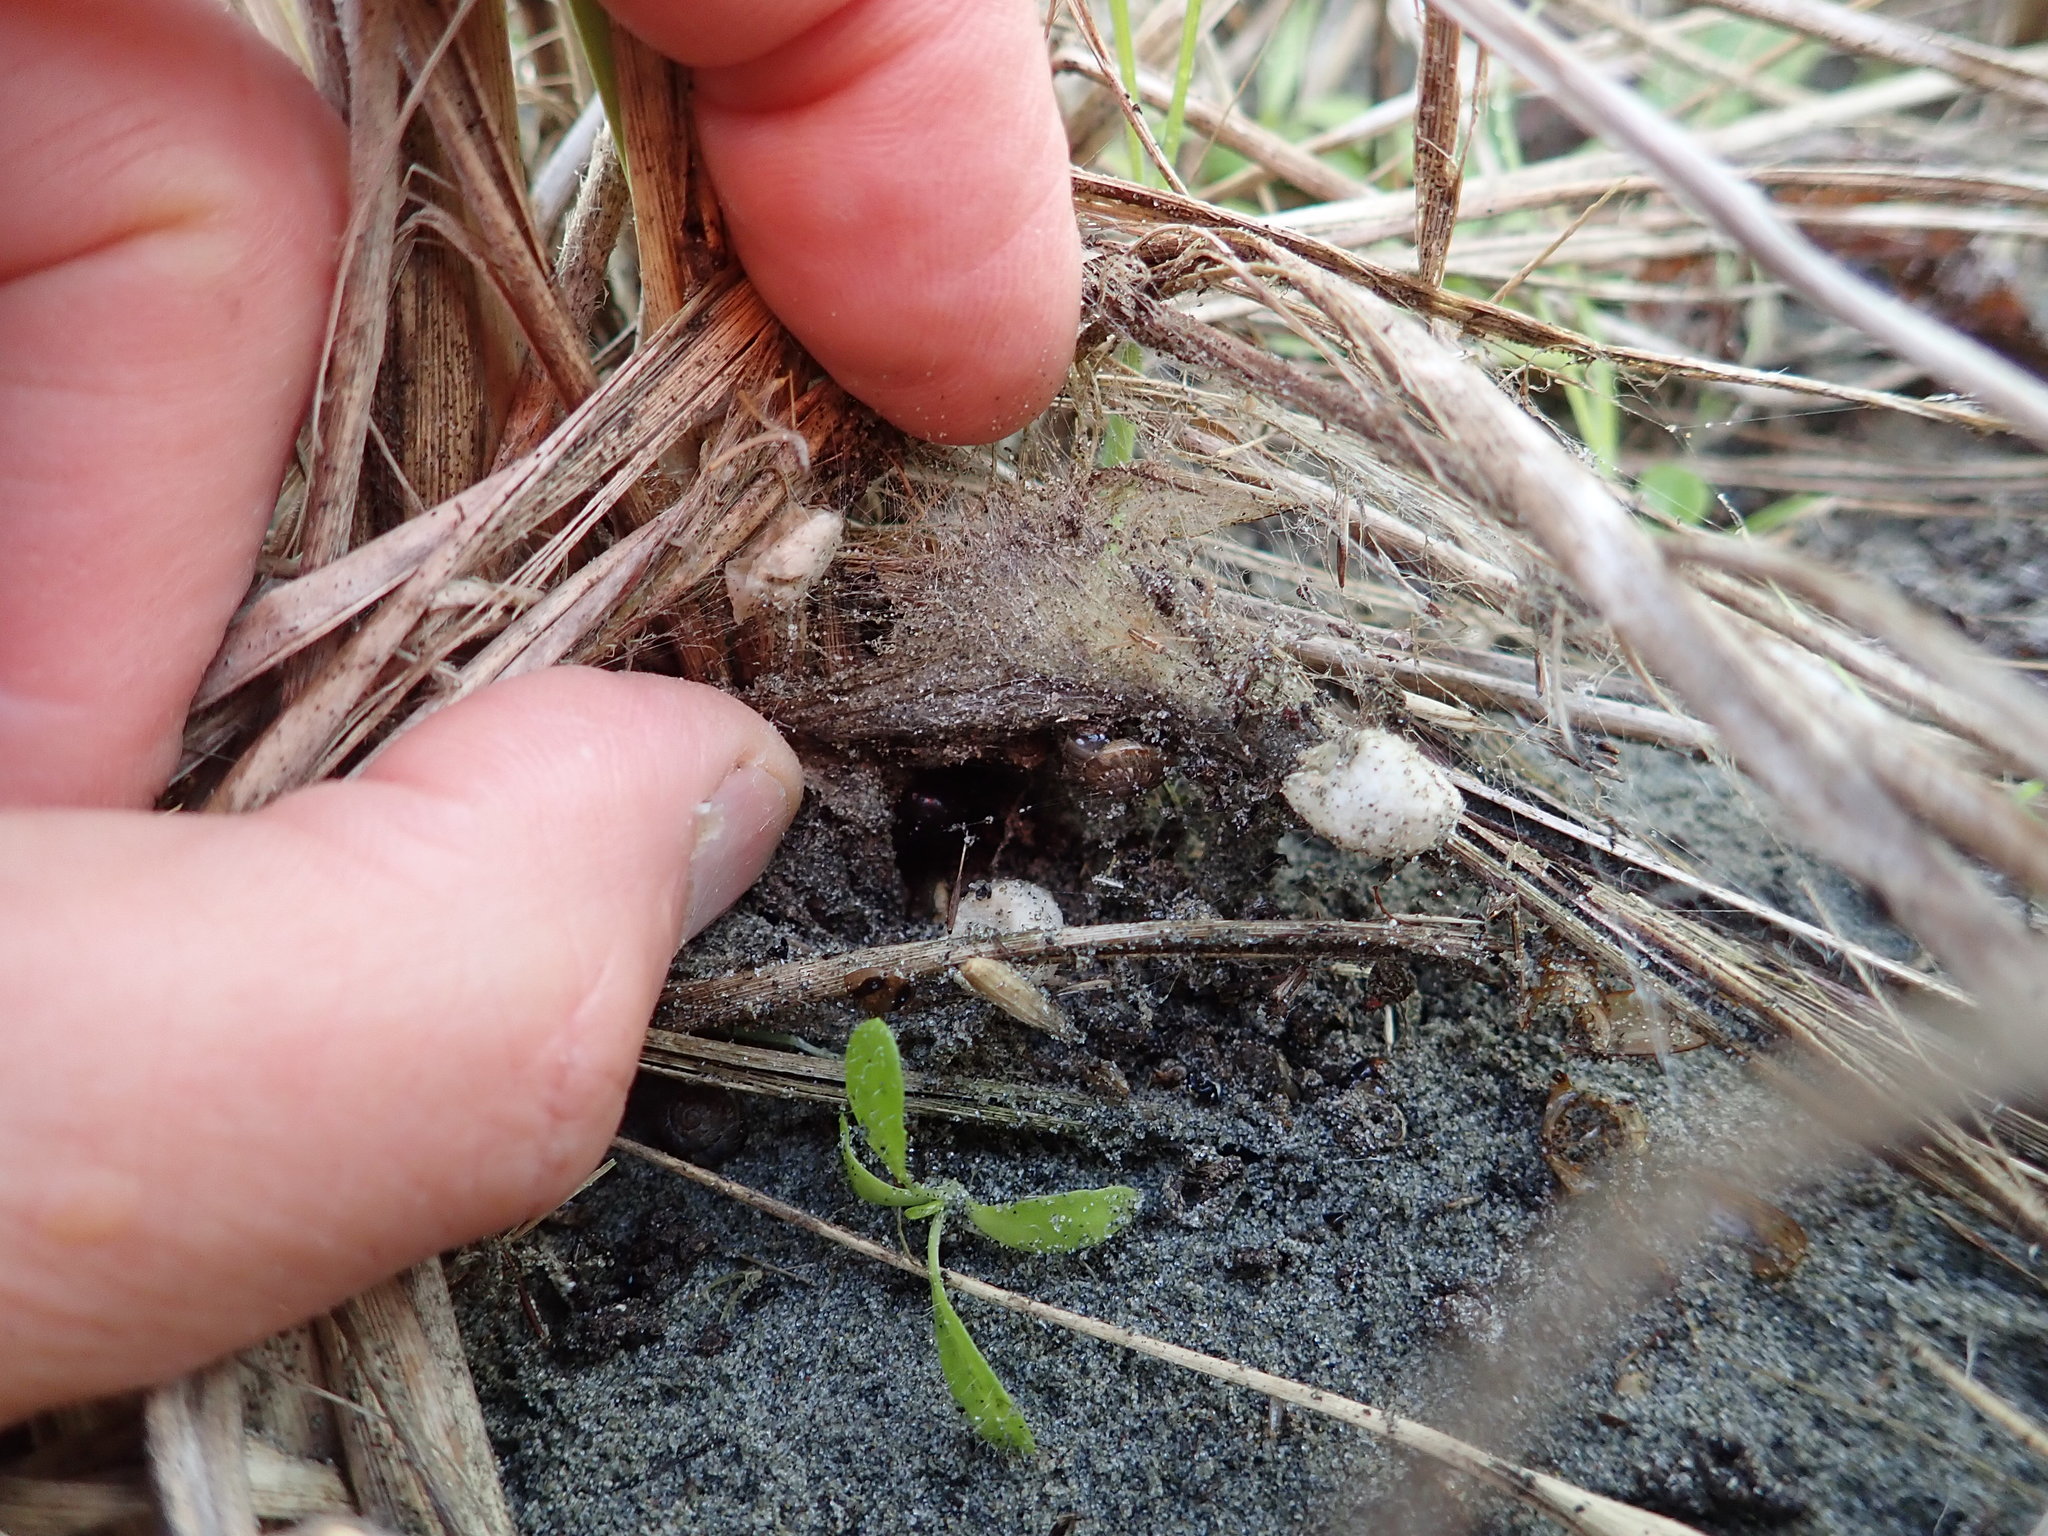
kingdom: Animalia
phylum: Arthropoda
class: Arachnida
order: Araneae
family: Theridiidae
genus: Steatoda
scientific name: Steatoda capensis
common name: Cobweb weaver
